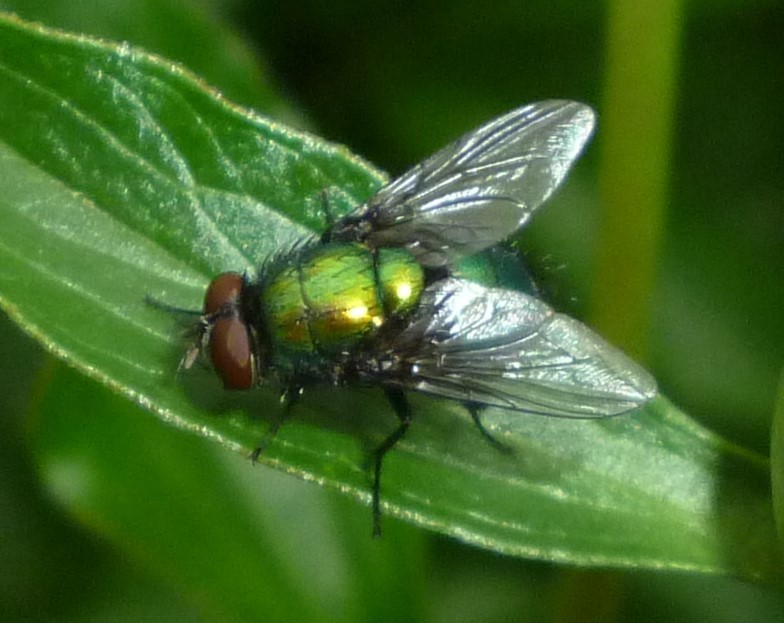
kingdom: Animalia
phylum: Arthropoda
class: Insecta
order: Diptera
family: Calliphoridae
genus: Lucilia
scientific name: Lucilia silvarum
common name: Marsh greenbottle
